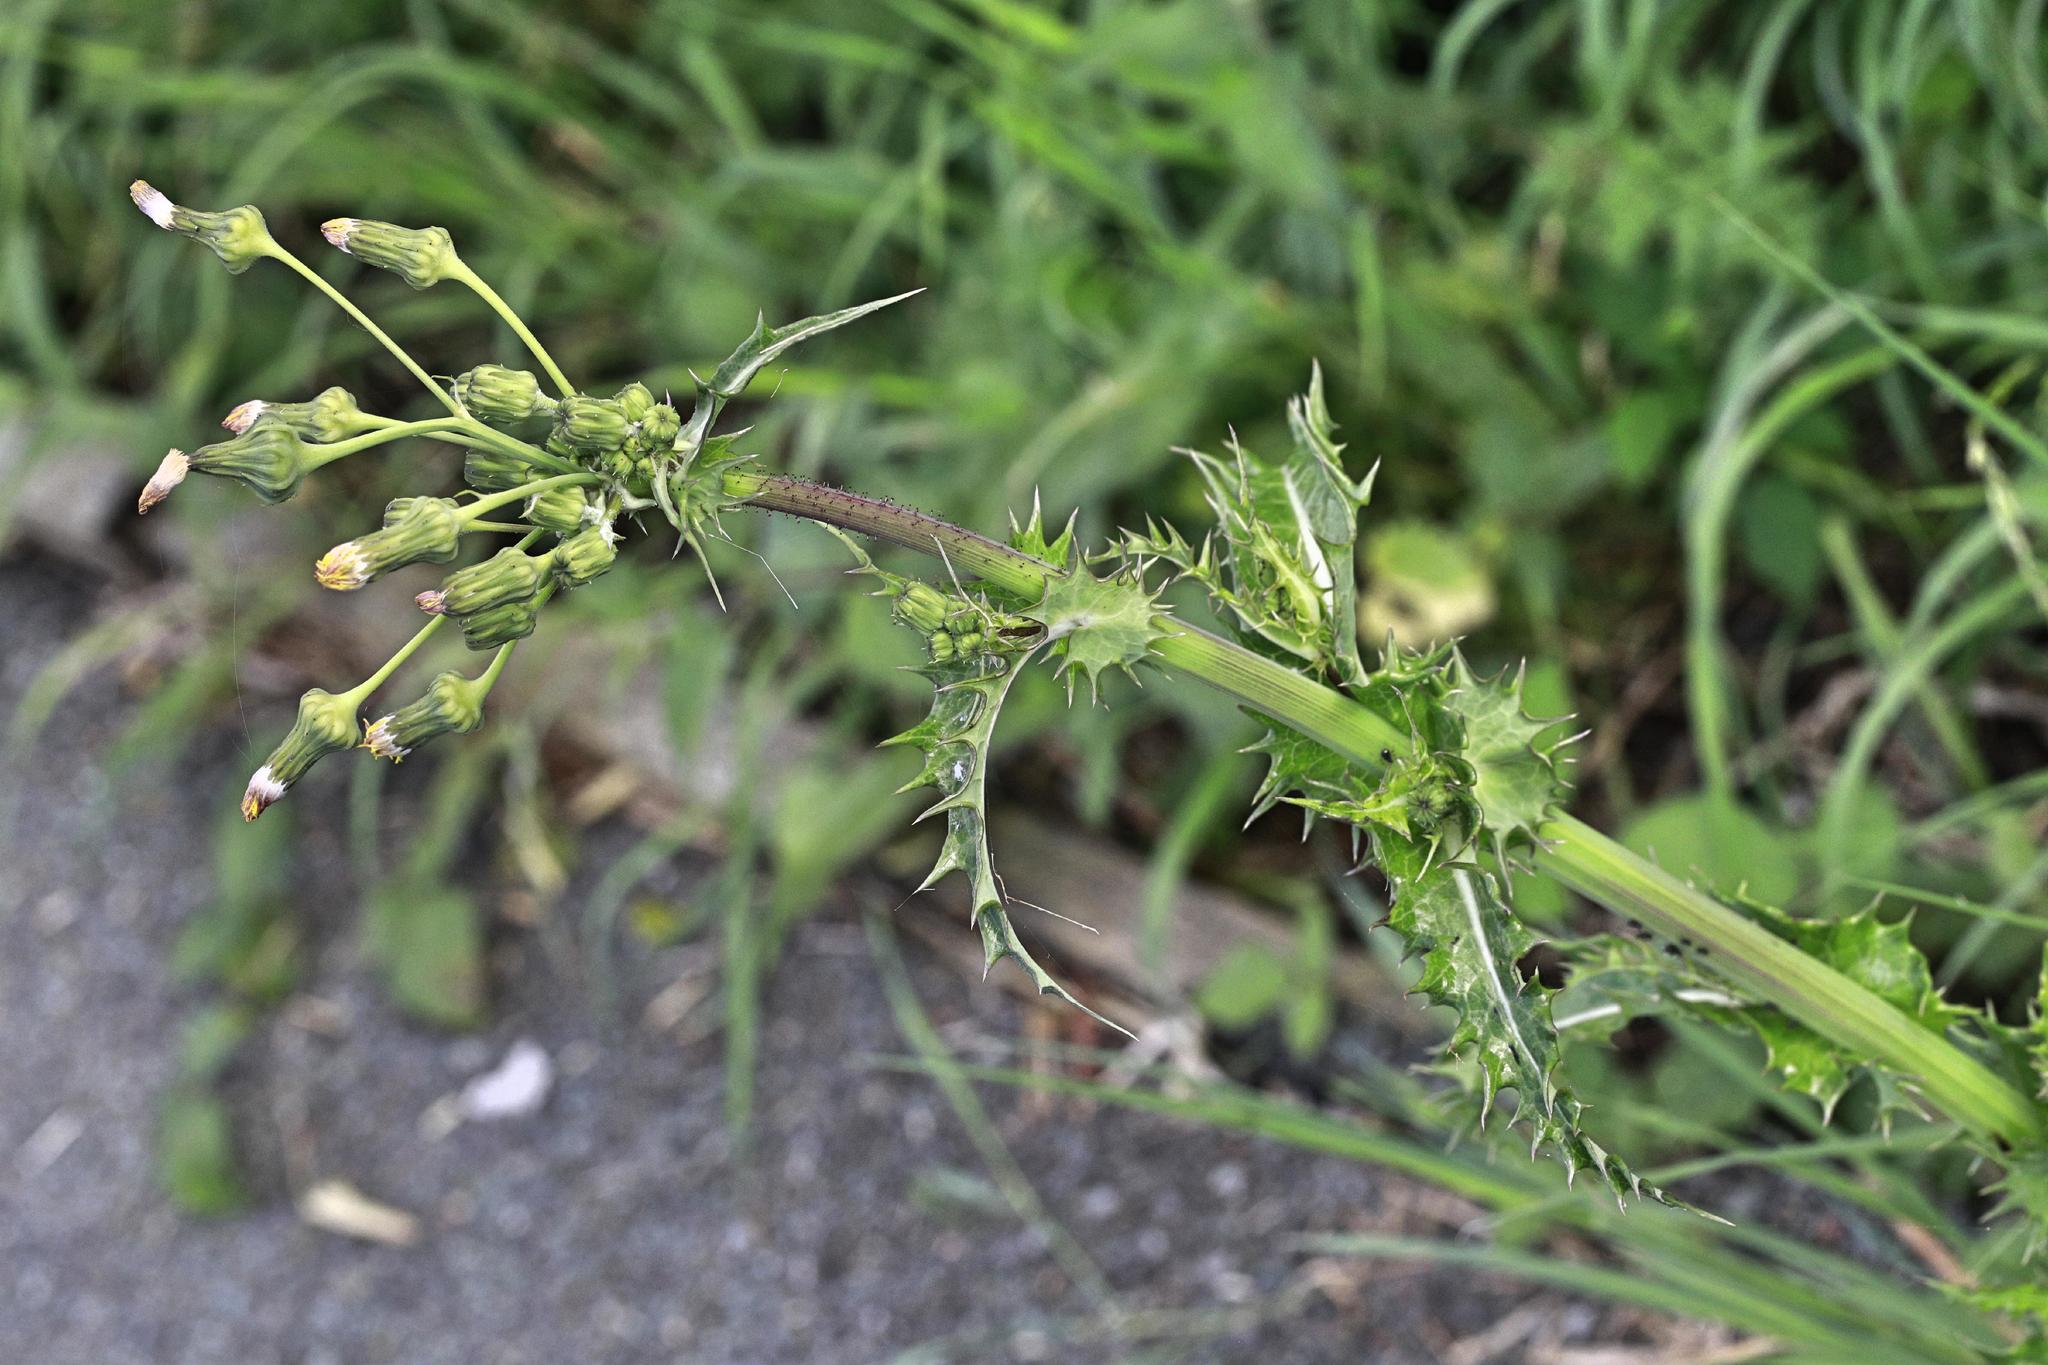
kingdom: Plantae
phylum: Tracheophyta
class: Magnoliopsida
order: Asterales
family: Asteraceae
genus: Sonchus
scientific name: Sonchus asper
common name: Prickly sow-thistle
